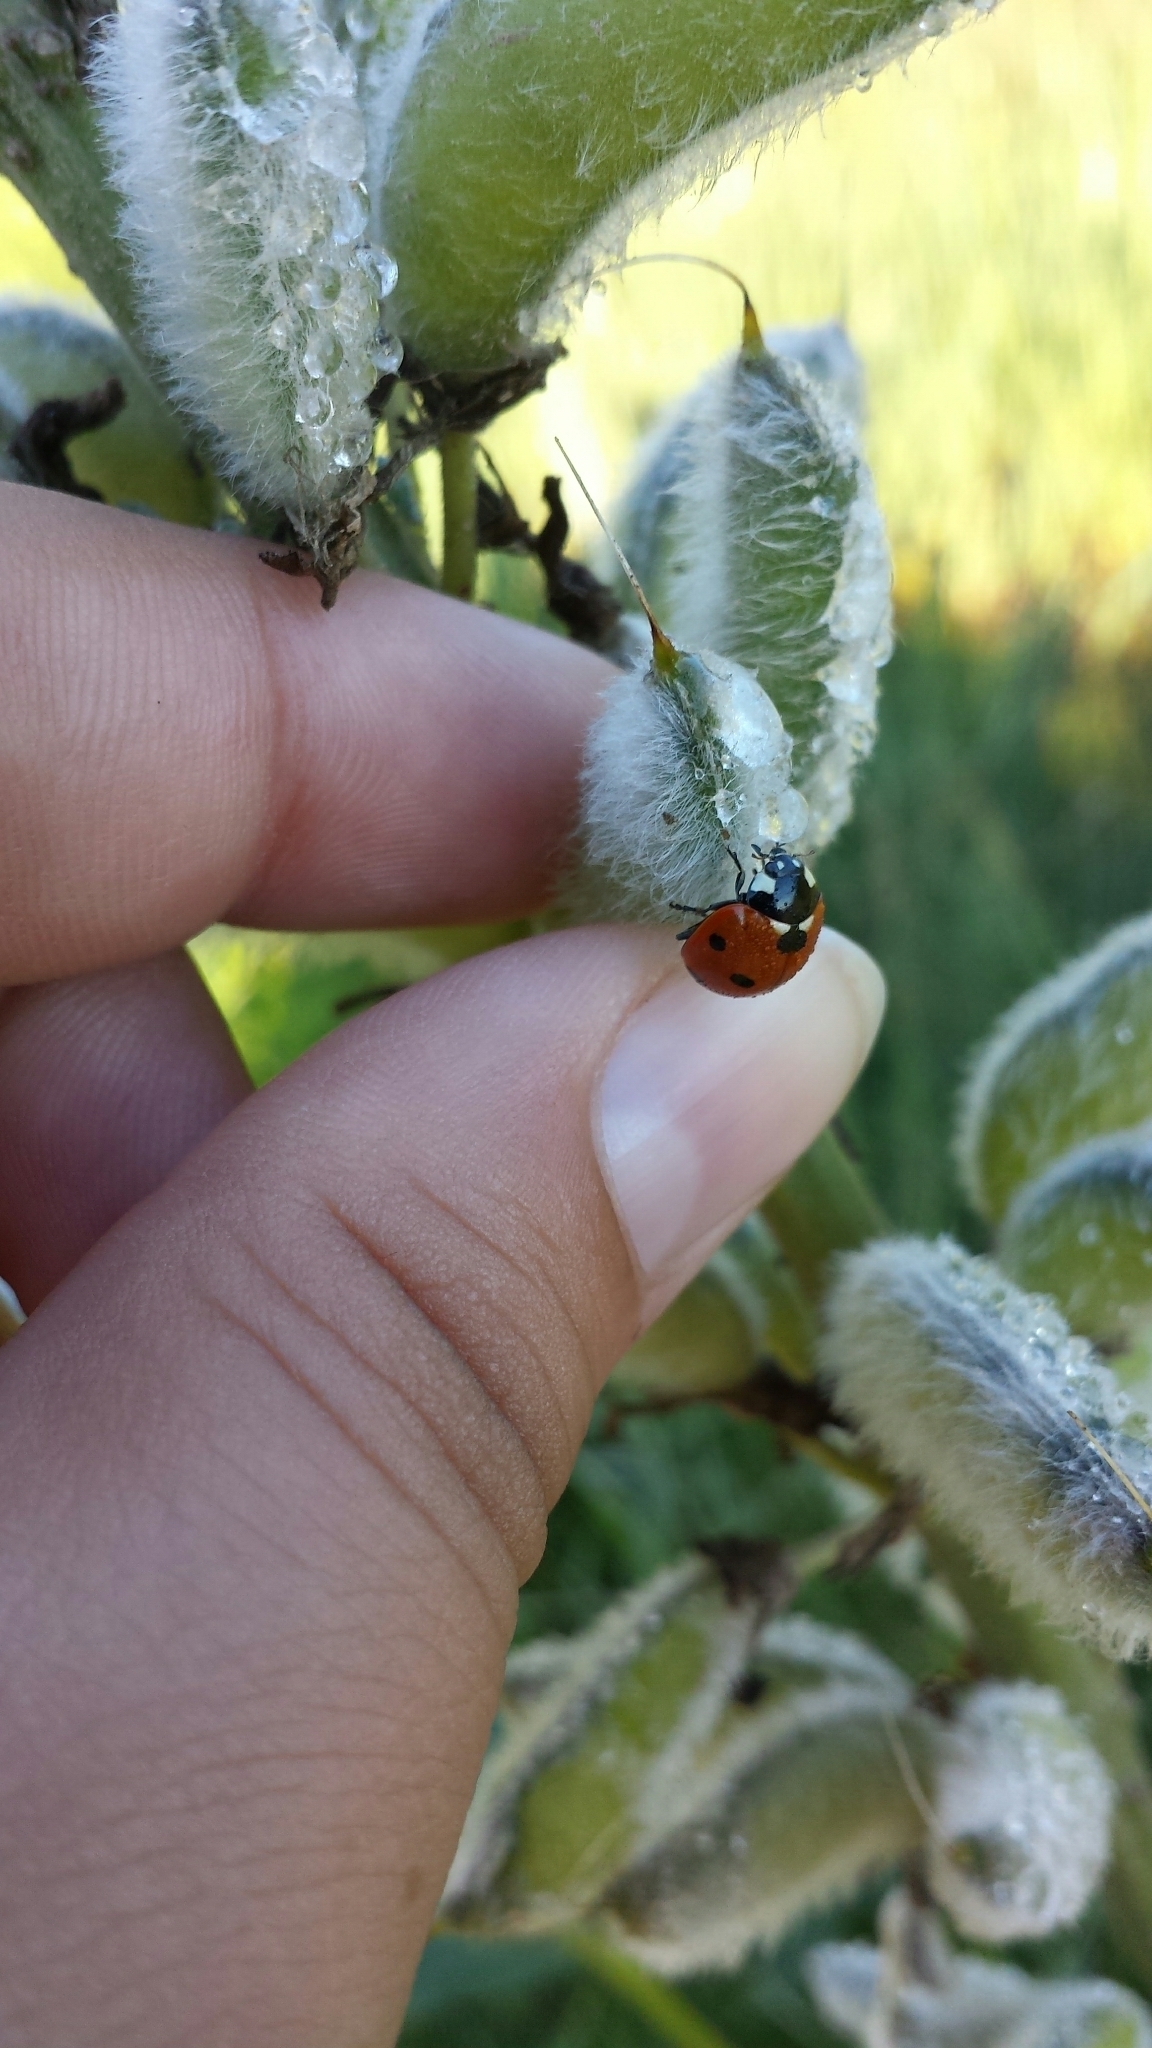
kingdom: Animalia
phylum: Arthropoda
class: Insecta
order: Coleoptera
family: Coccinellidae
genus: Coccinella
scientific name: Coccinella septempunctata
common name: Sevenspotted lady beetle
